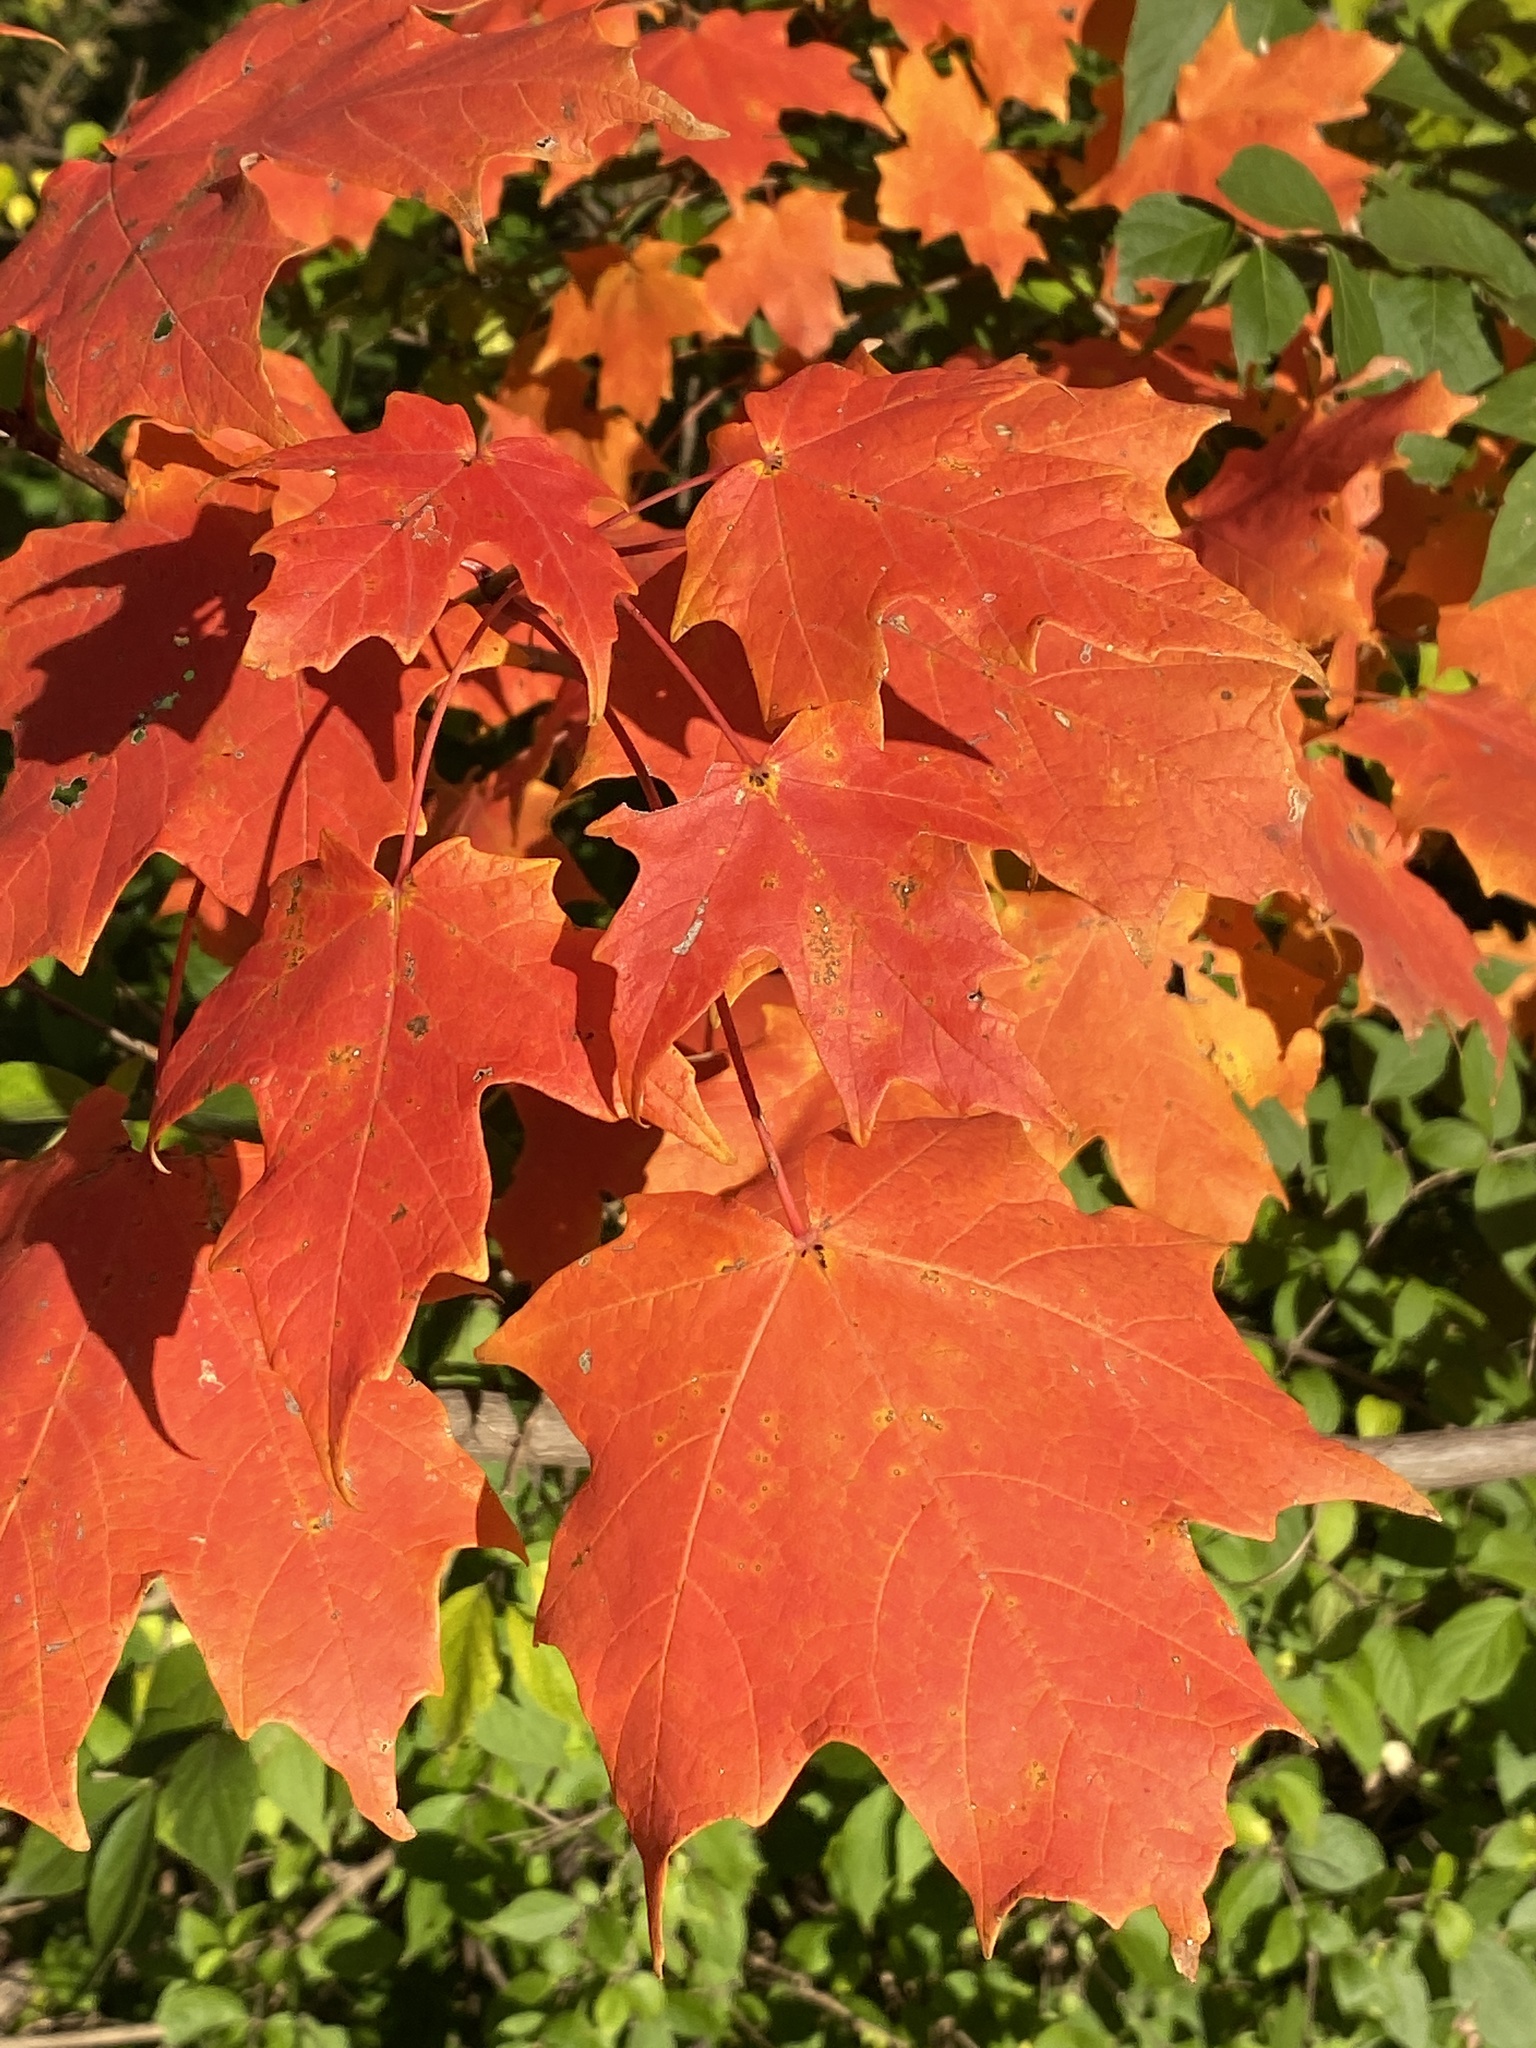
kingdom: Plantae
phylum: Tracheophyta
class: Magnoliopsida
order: Sapindales
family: Sapindaceae
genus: Acer
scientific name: Acer saccharum
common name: Sugar maple
